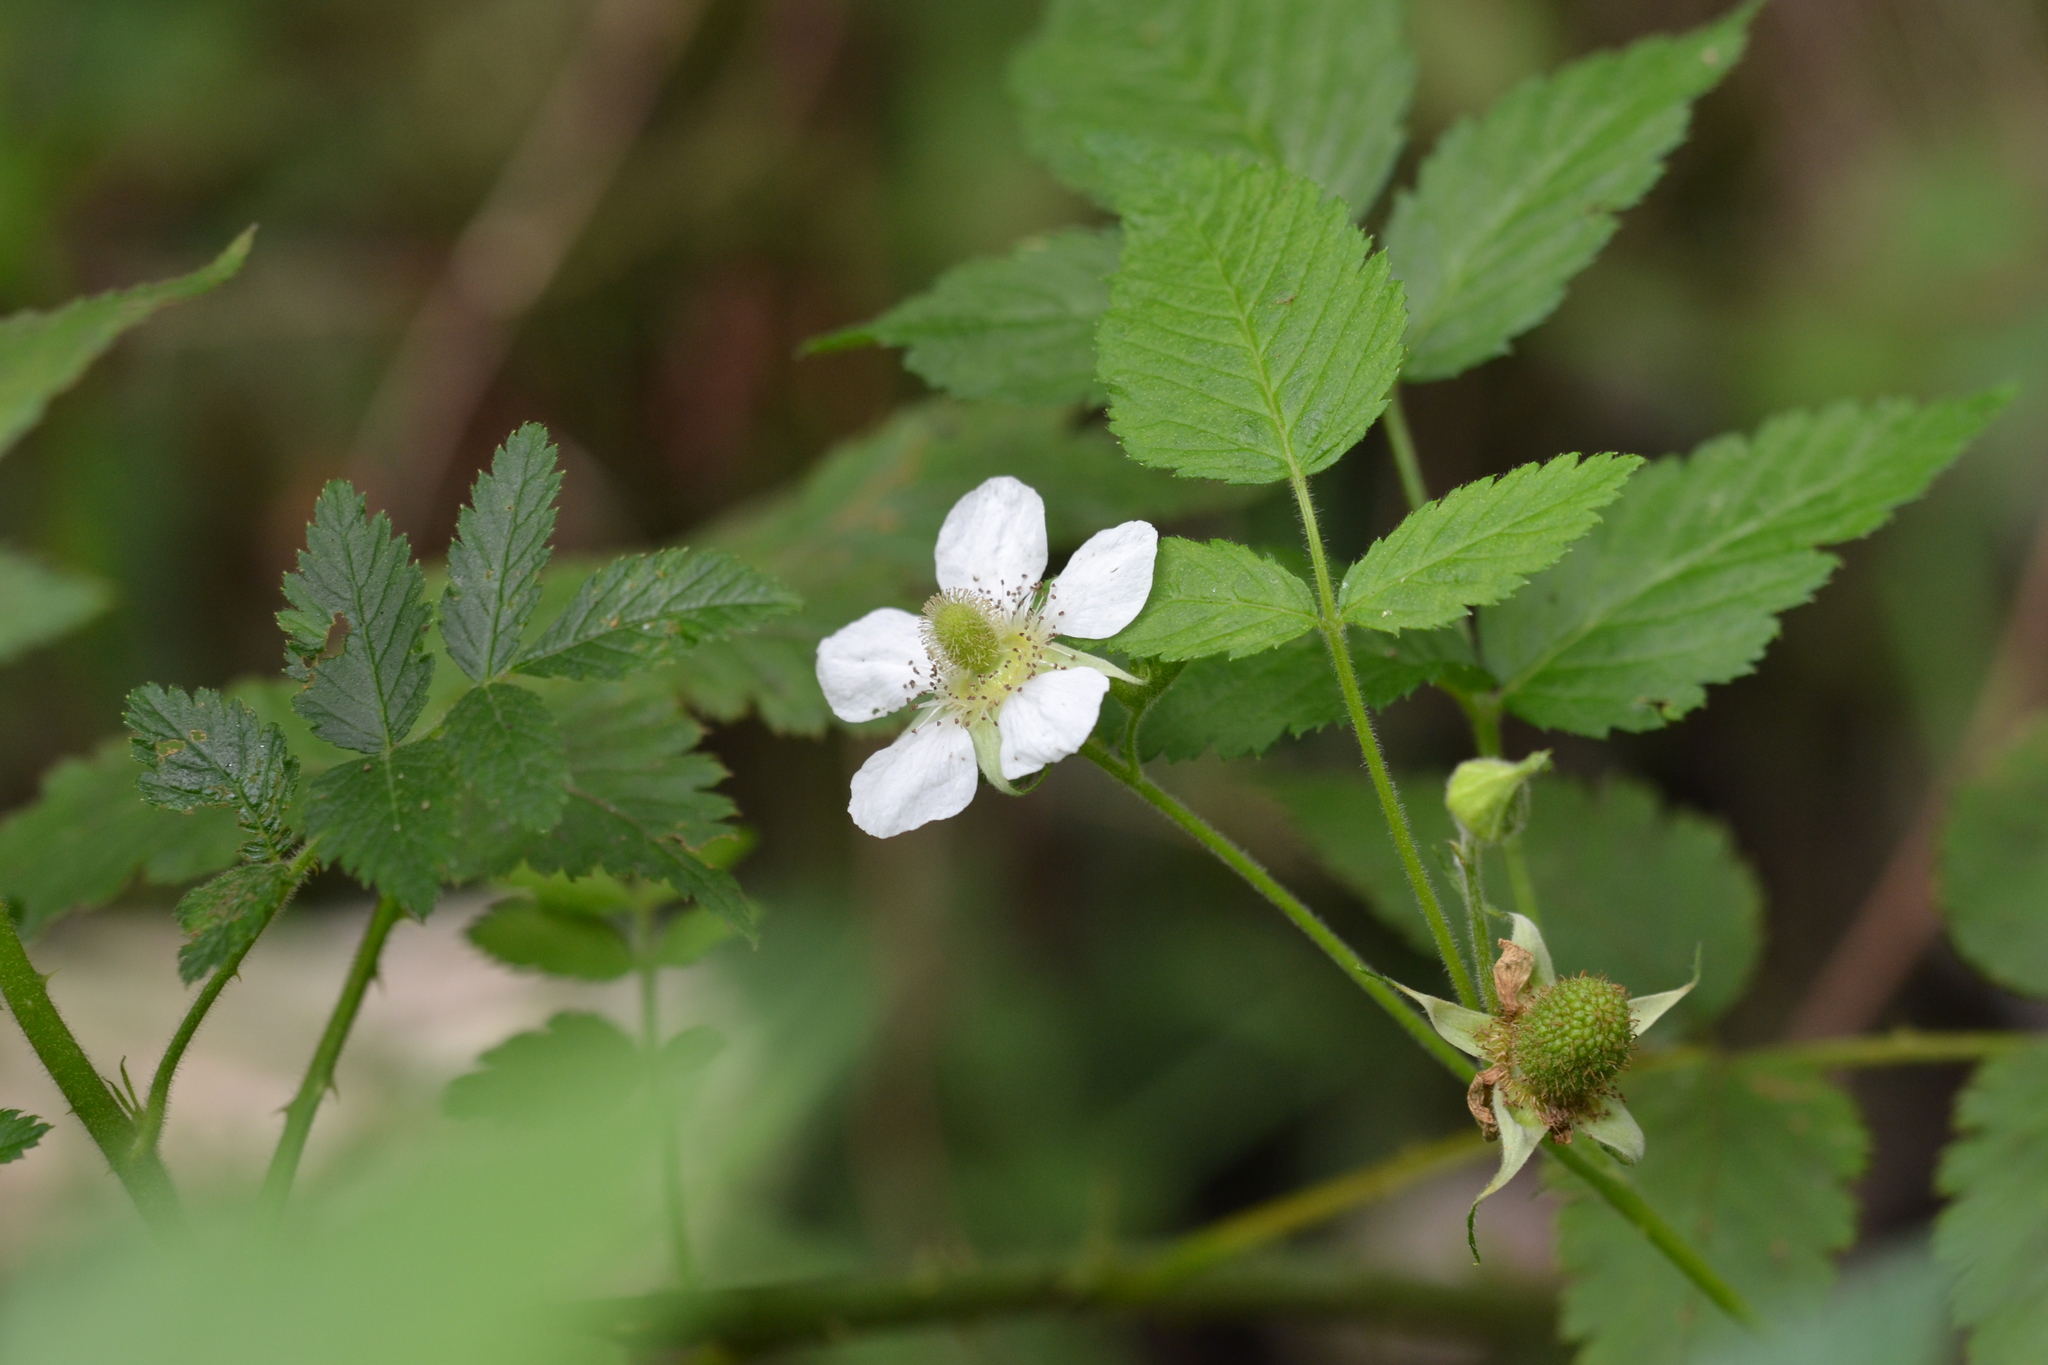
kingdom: Plantae
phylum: Tracheophyta
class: Magnoliopsida
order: Rosales
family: Rosaceae
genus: Rubus
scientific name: Rubus rosifolius
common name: Roseleaf raspberry
